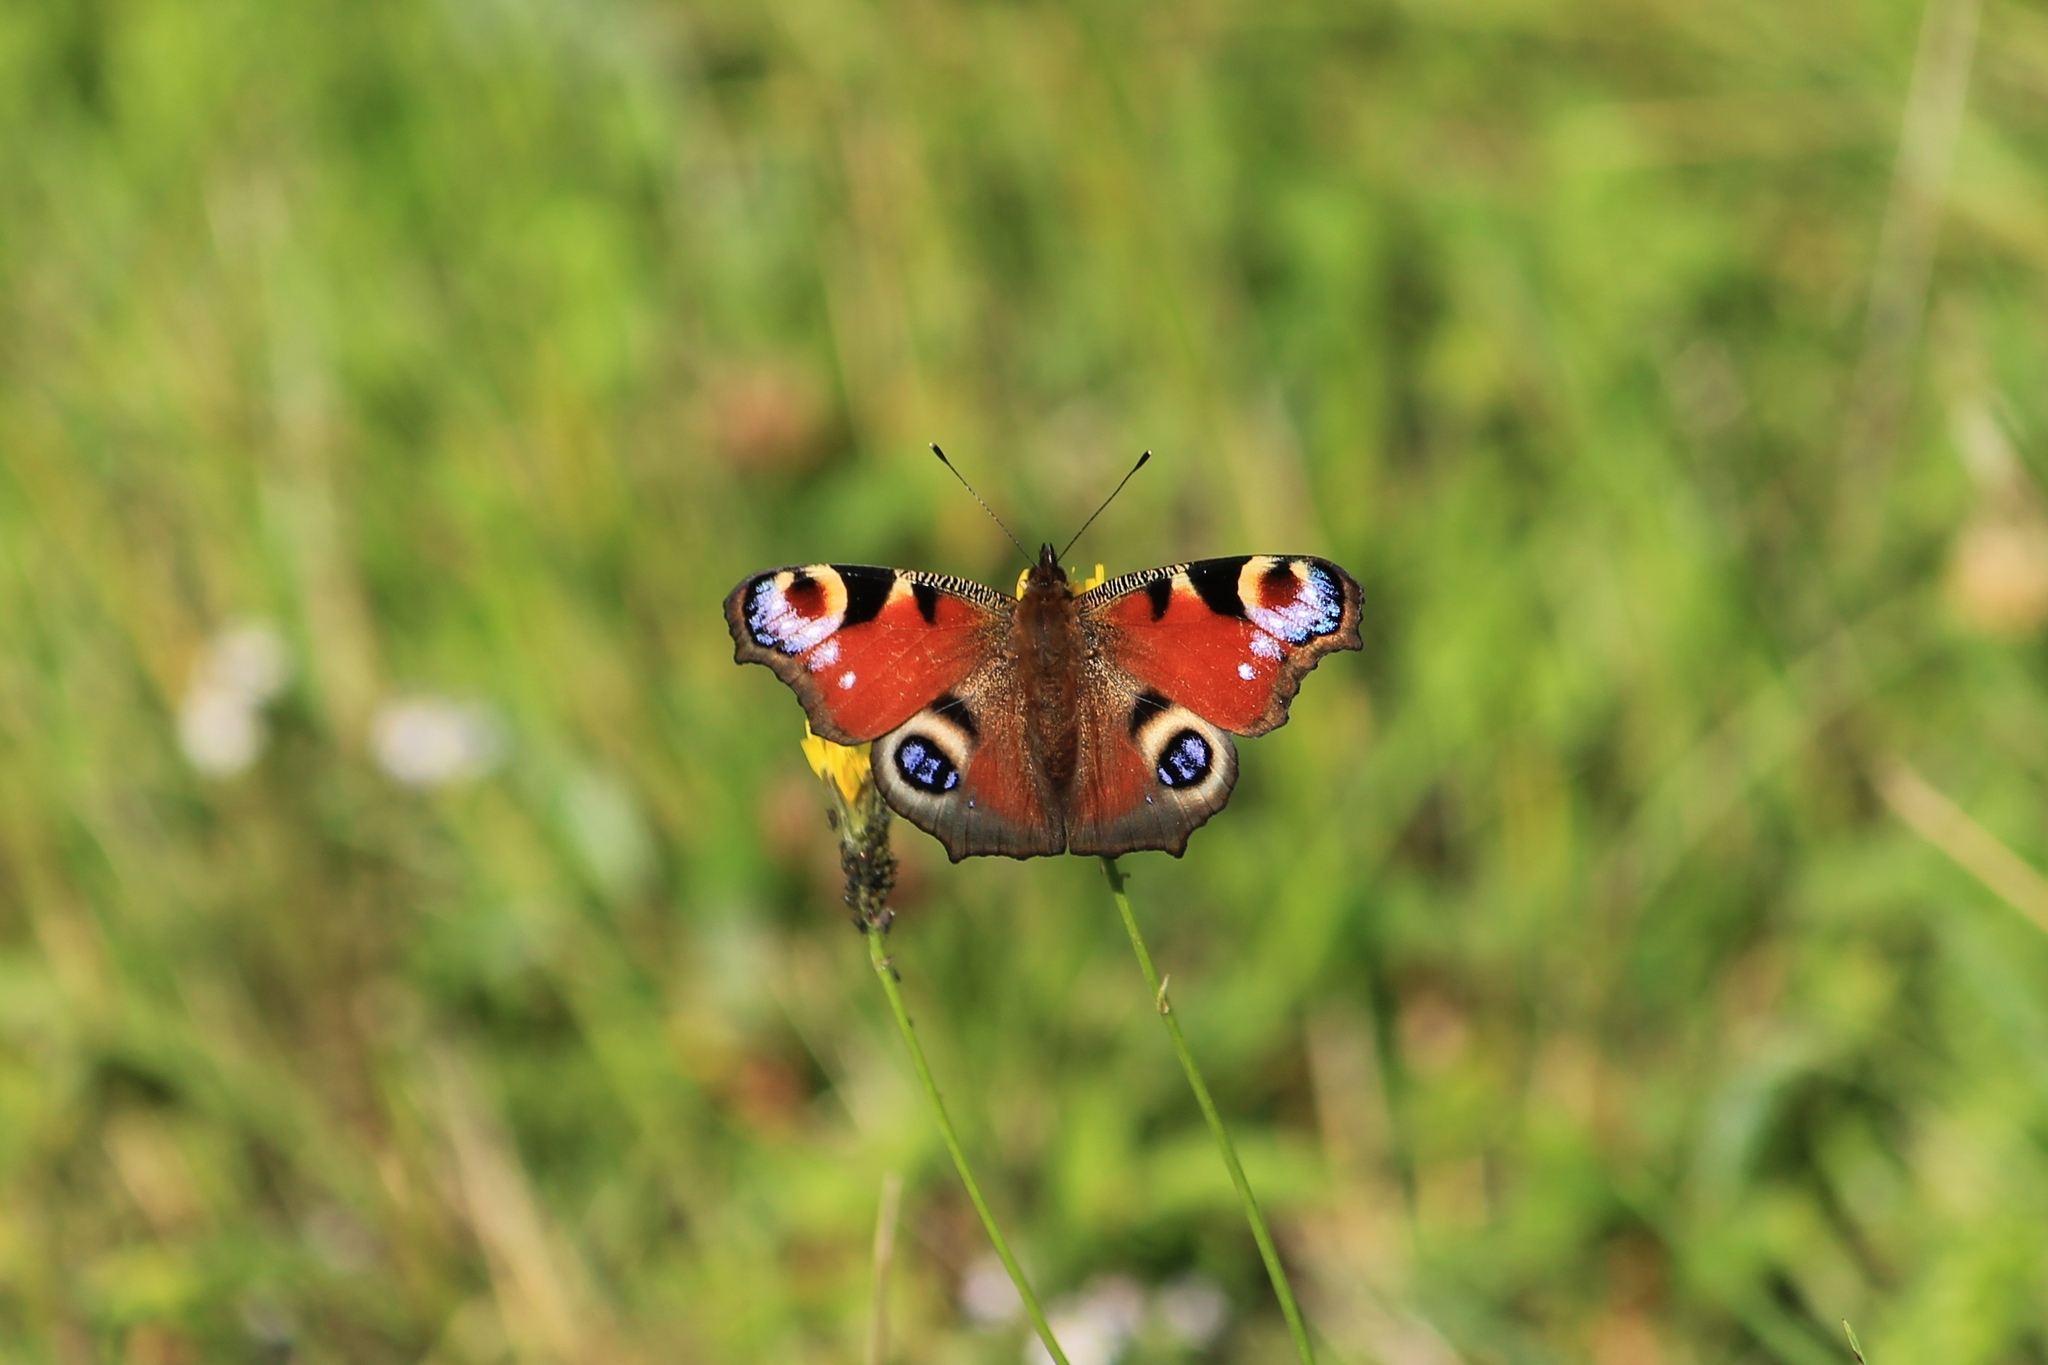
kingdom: Animalia
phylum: Arthropoda
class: Insecta
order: Lepidoptera
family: Nymphalidae
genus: Aglais
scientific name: Aglais io
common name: Peacock
